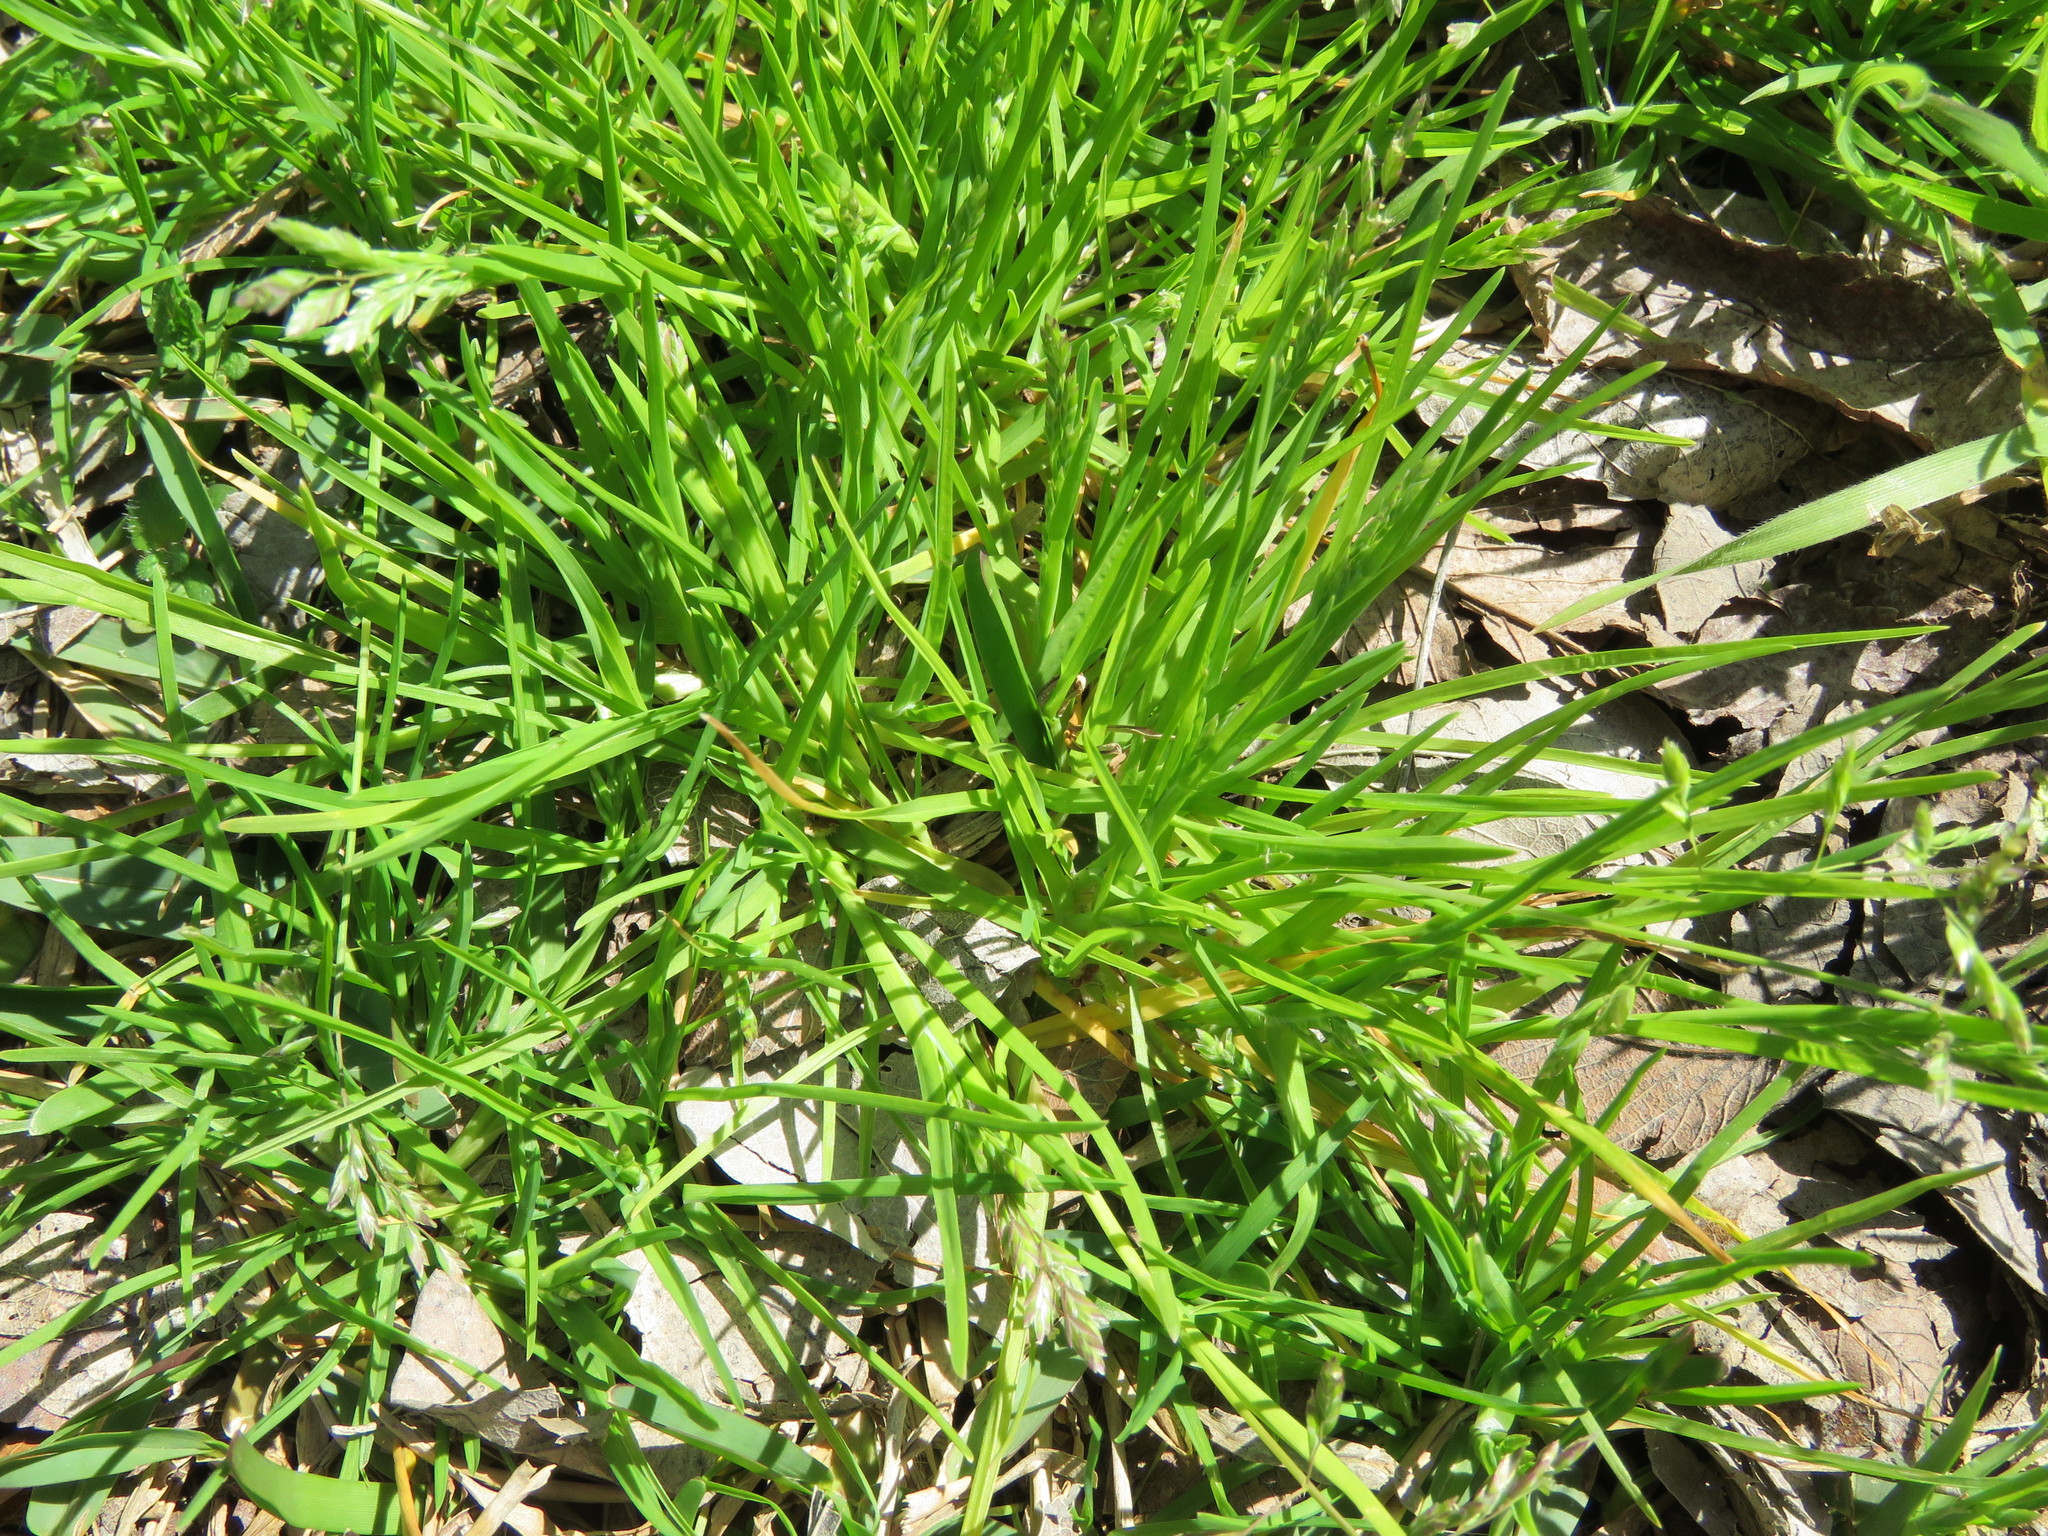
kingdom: Plantae
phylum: Tracheophyta
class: Liliopsida
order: Poales
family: Poaceae
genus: Poa
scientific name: Poa annua
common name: Annual bluegrass
